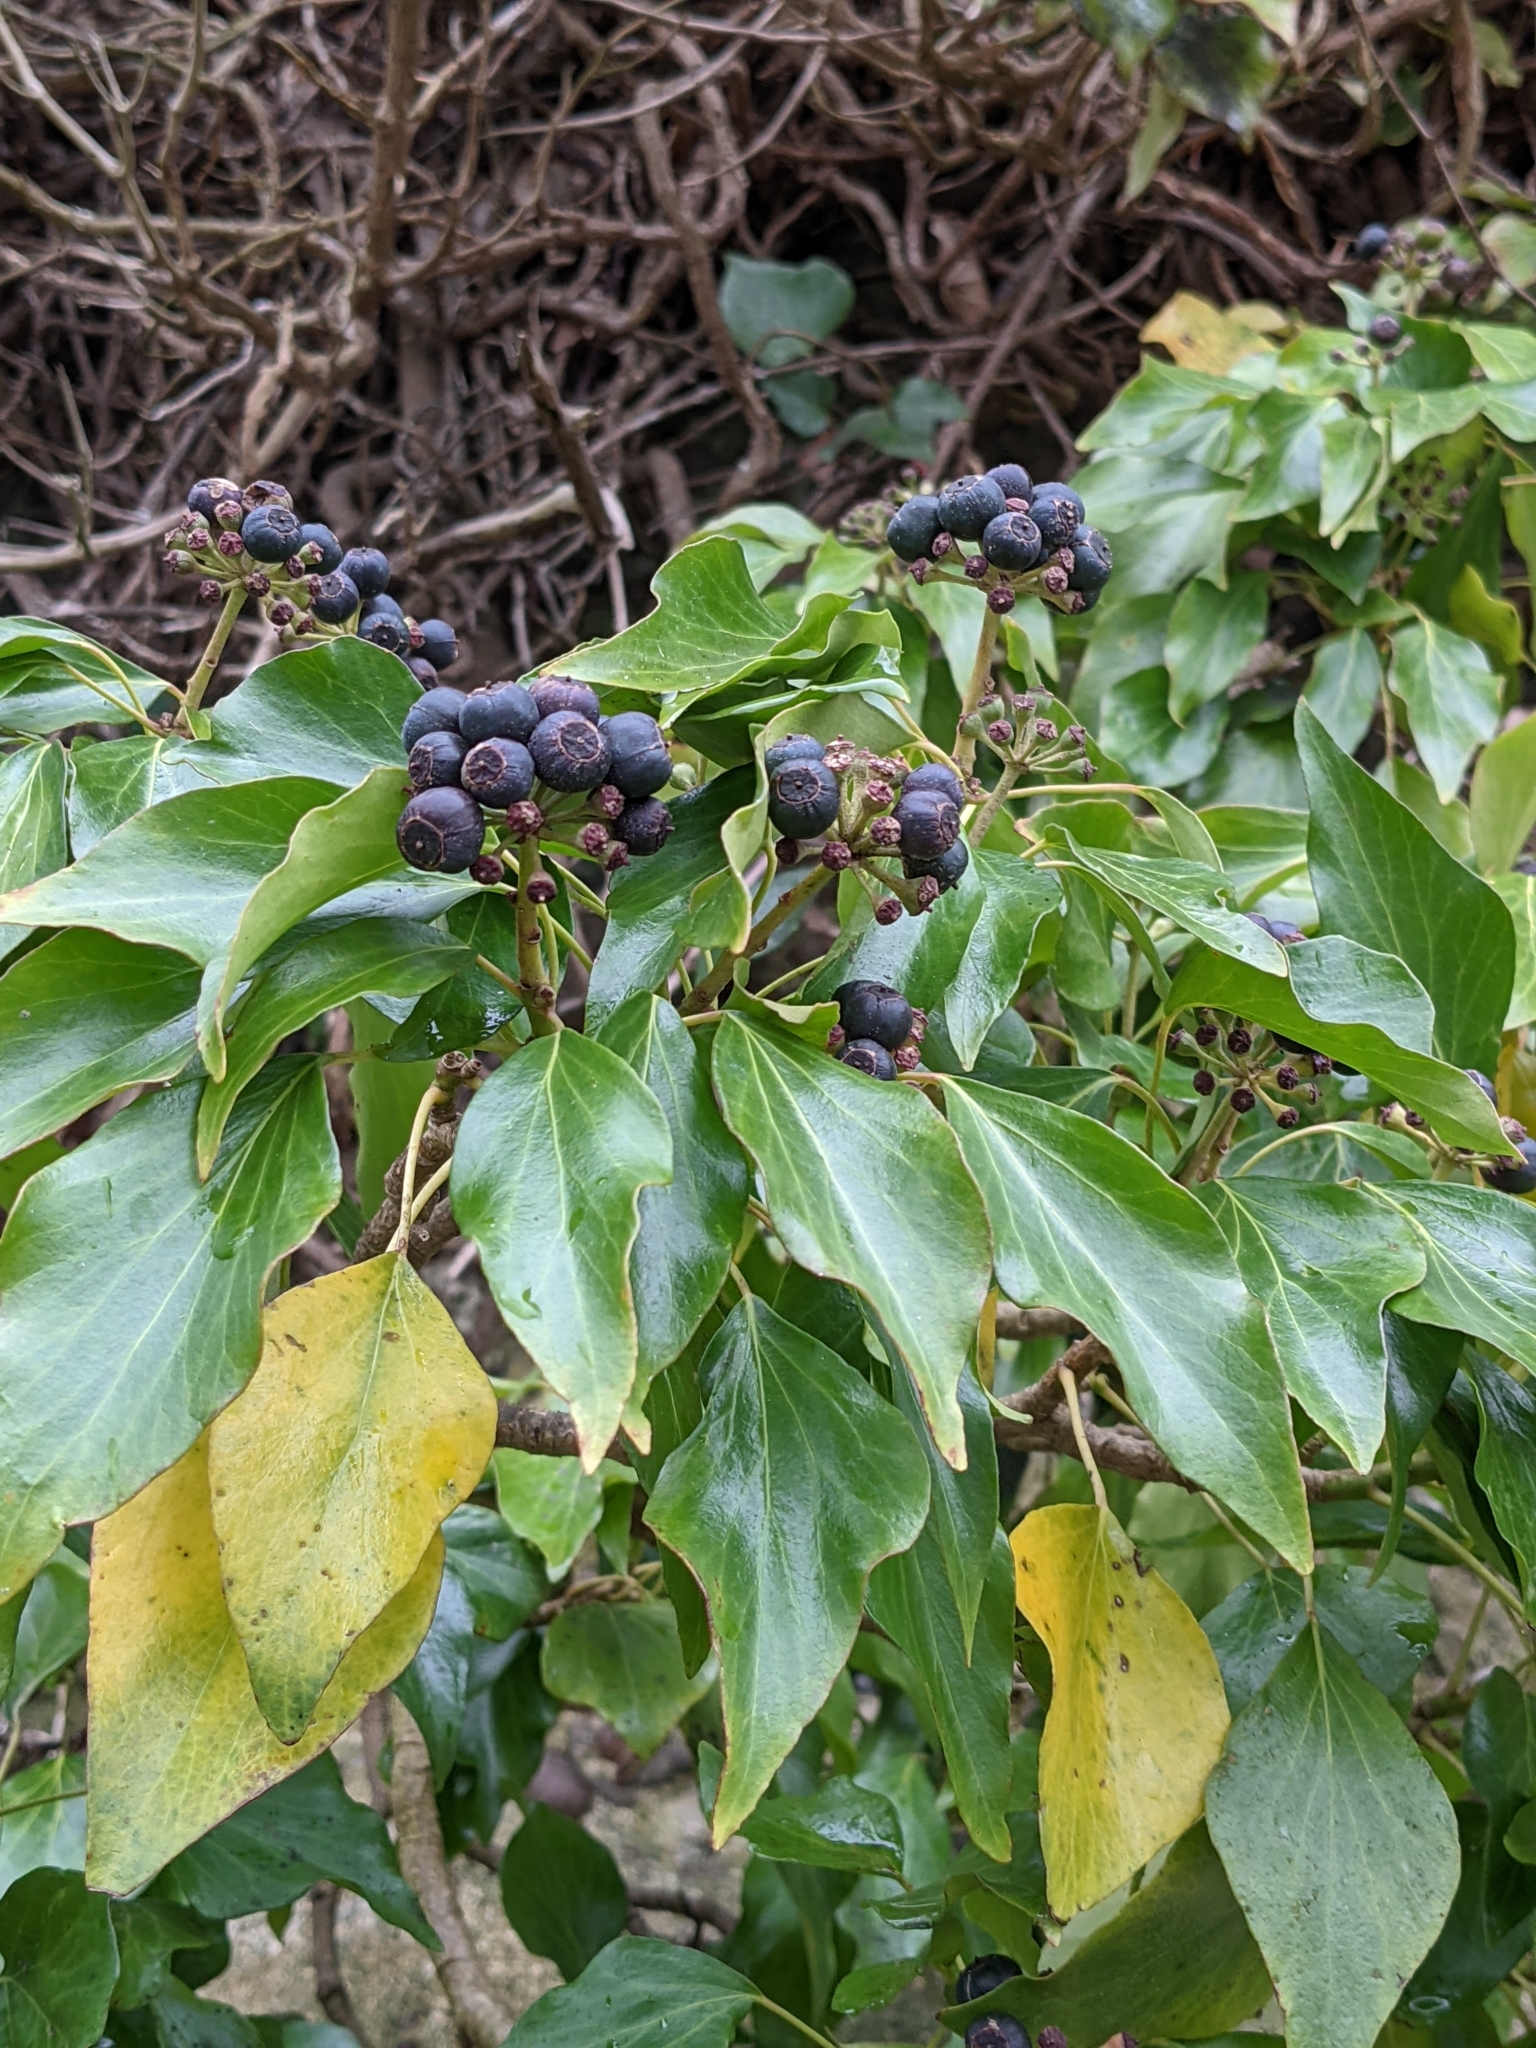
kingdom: Plantae
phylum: Tracheophyta
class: Magnoliopsida
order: Apiales
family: Araliaceae
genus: Hedera
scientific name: Hedera helix
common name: Ivy
